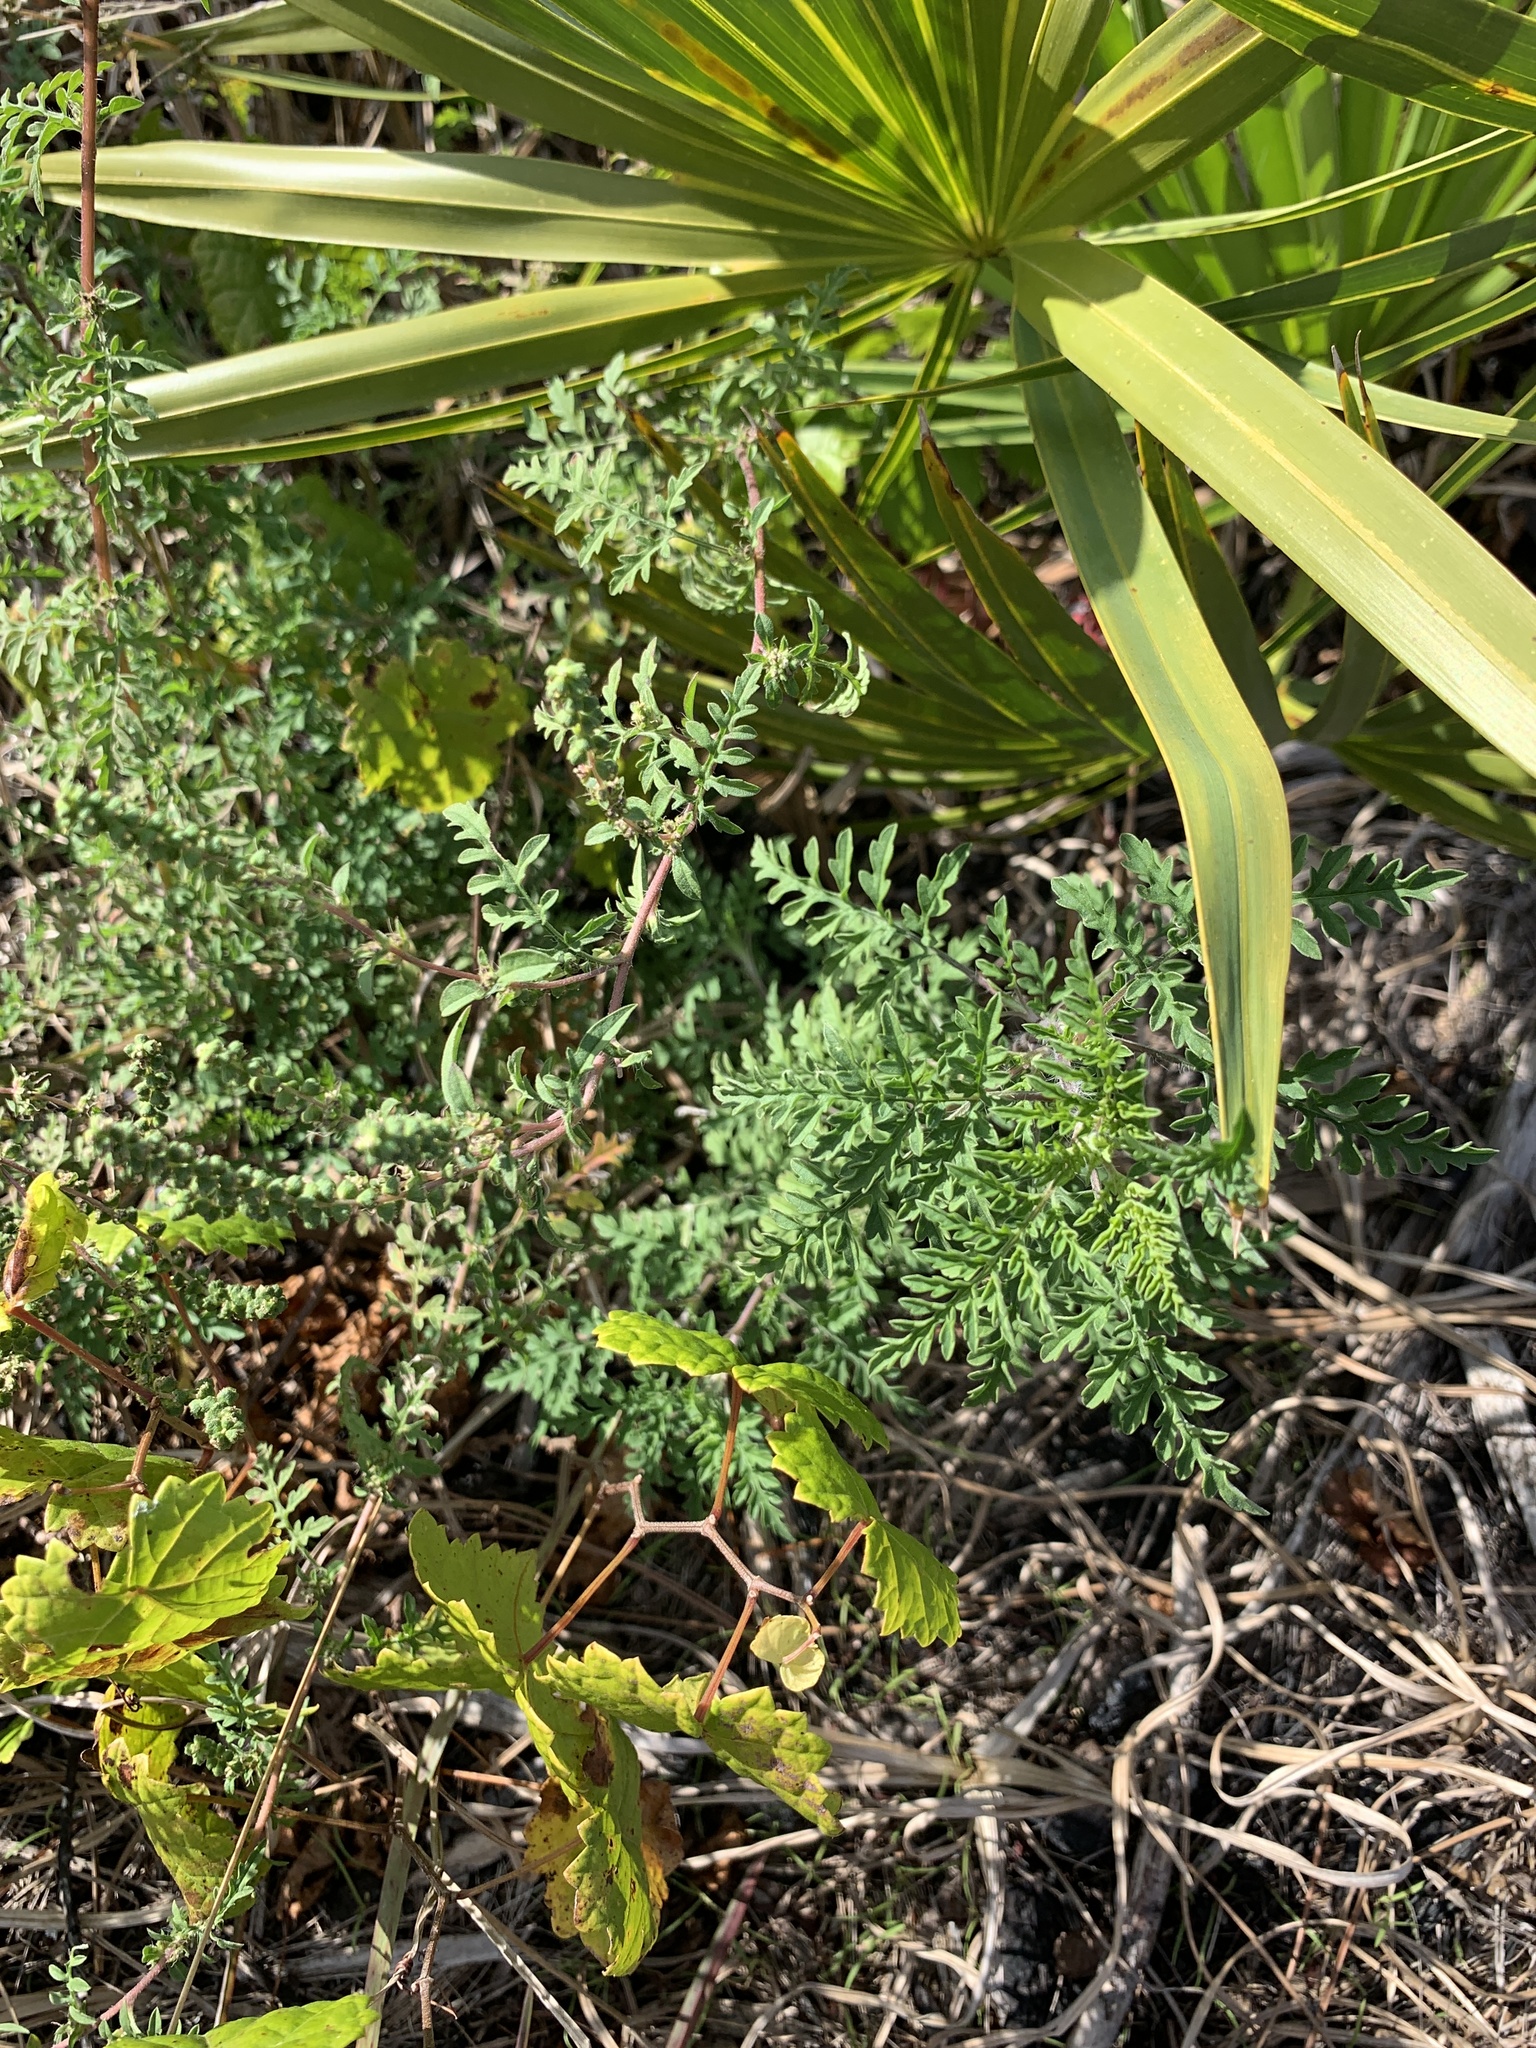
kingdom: Plantae
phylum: Tracheophyta
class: Magnoliopsida
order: Asterales
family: Asteraceae
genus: Ambrosia
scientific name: Ambrosia artemisiifolia
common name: Annual ragweed
